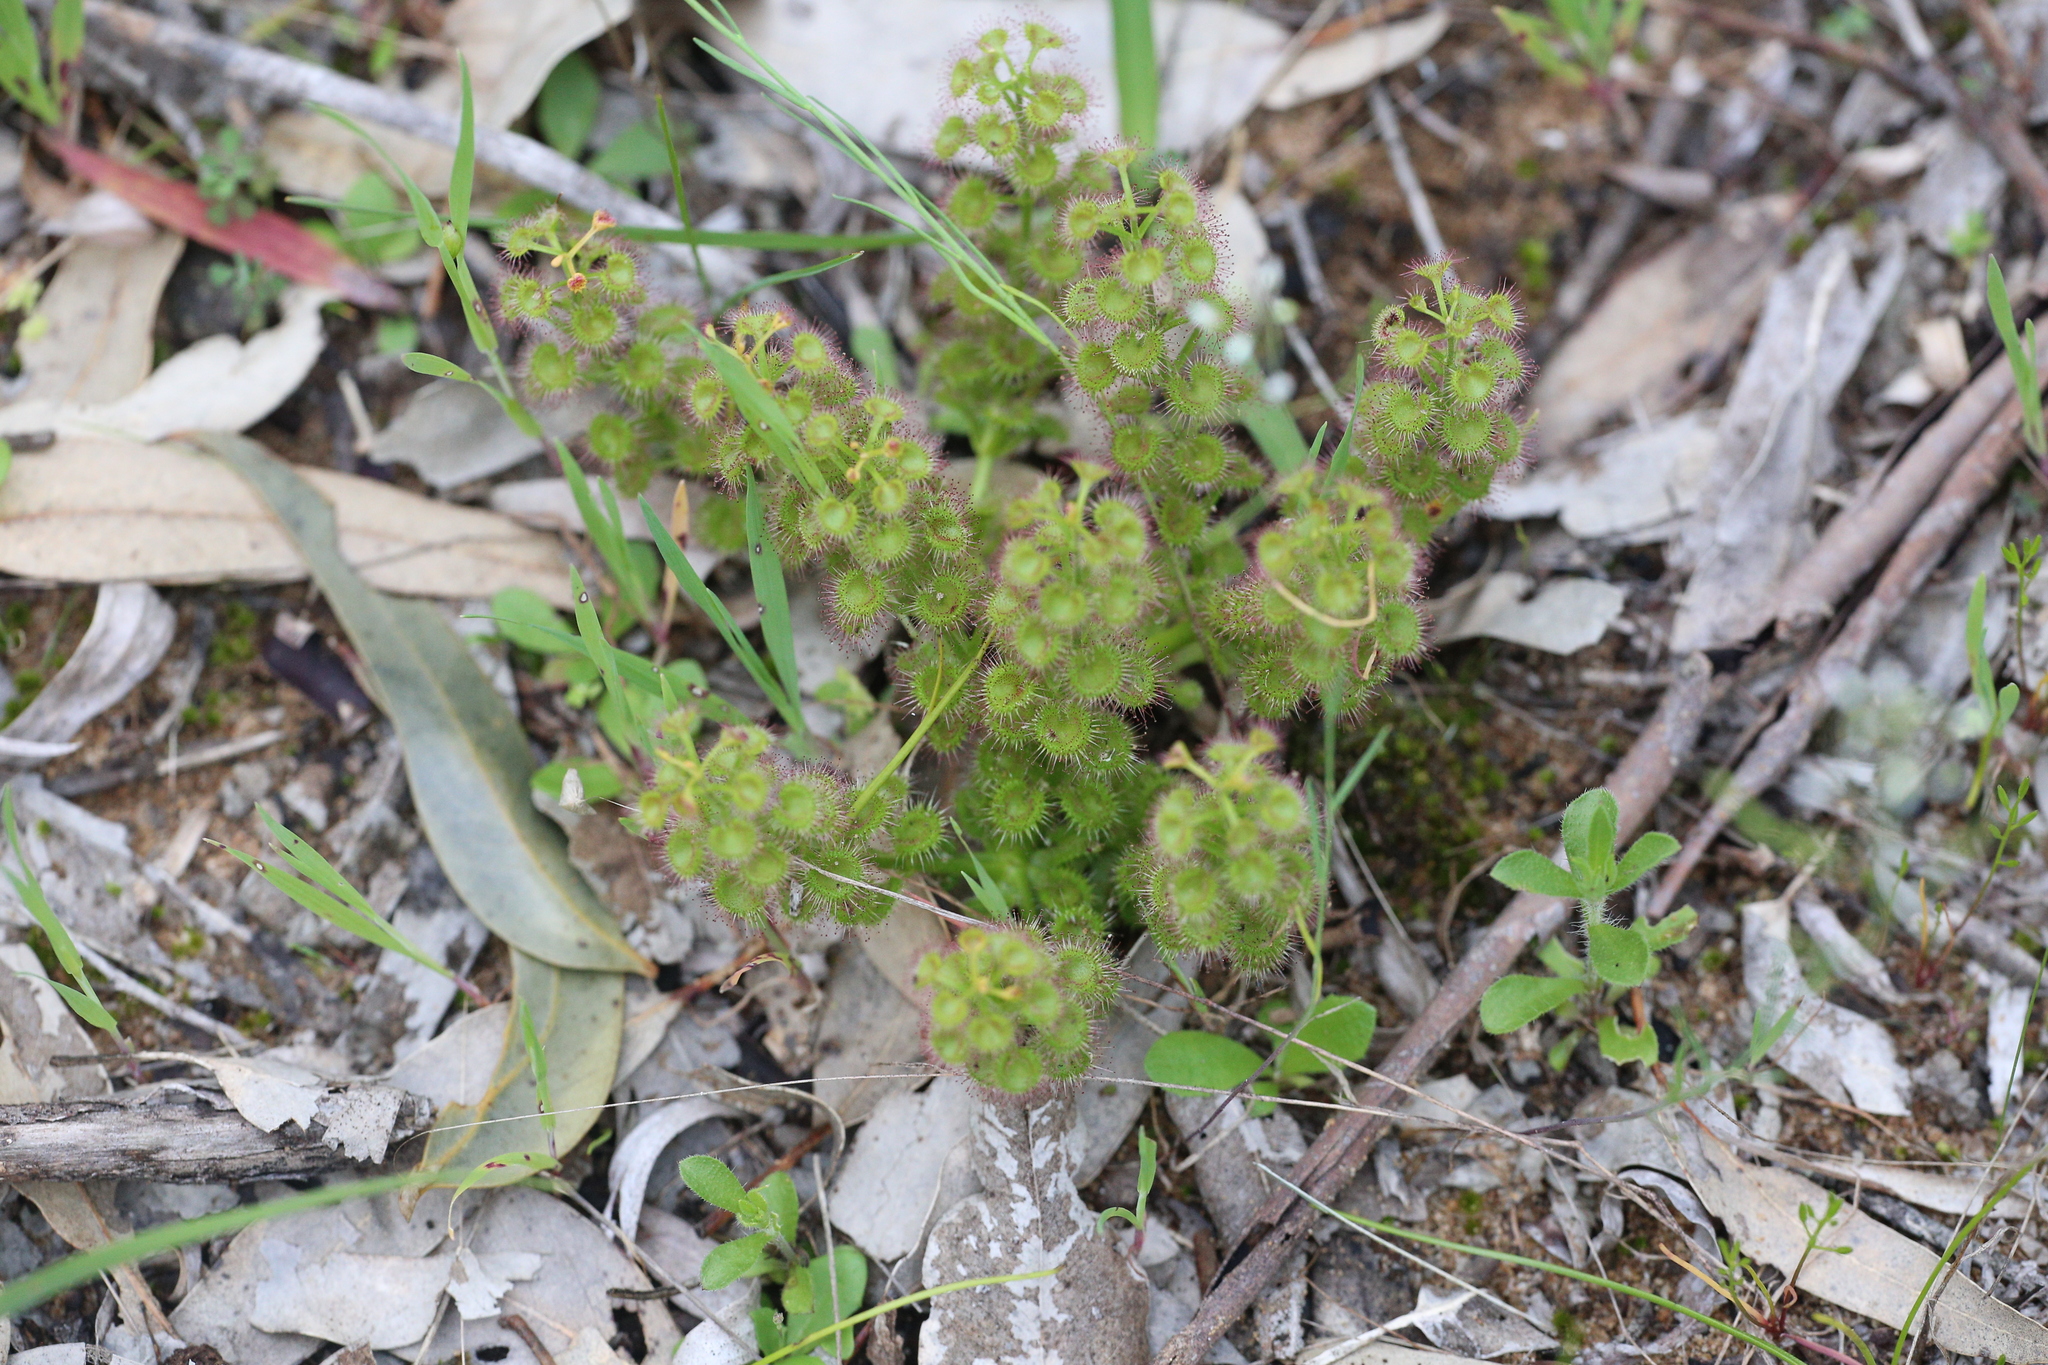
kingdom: Plantae
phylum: Tracheophyta
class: Magnoliopsida
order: Caryophyllales
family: Droseraceae
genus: Drosera
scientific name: Drosera stolonifera
